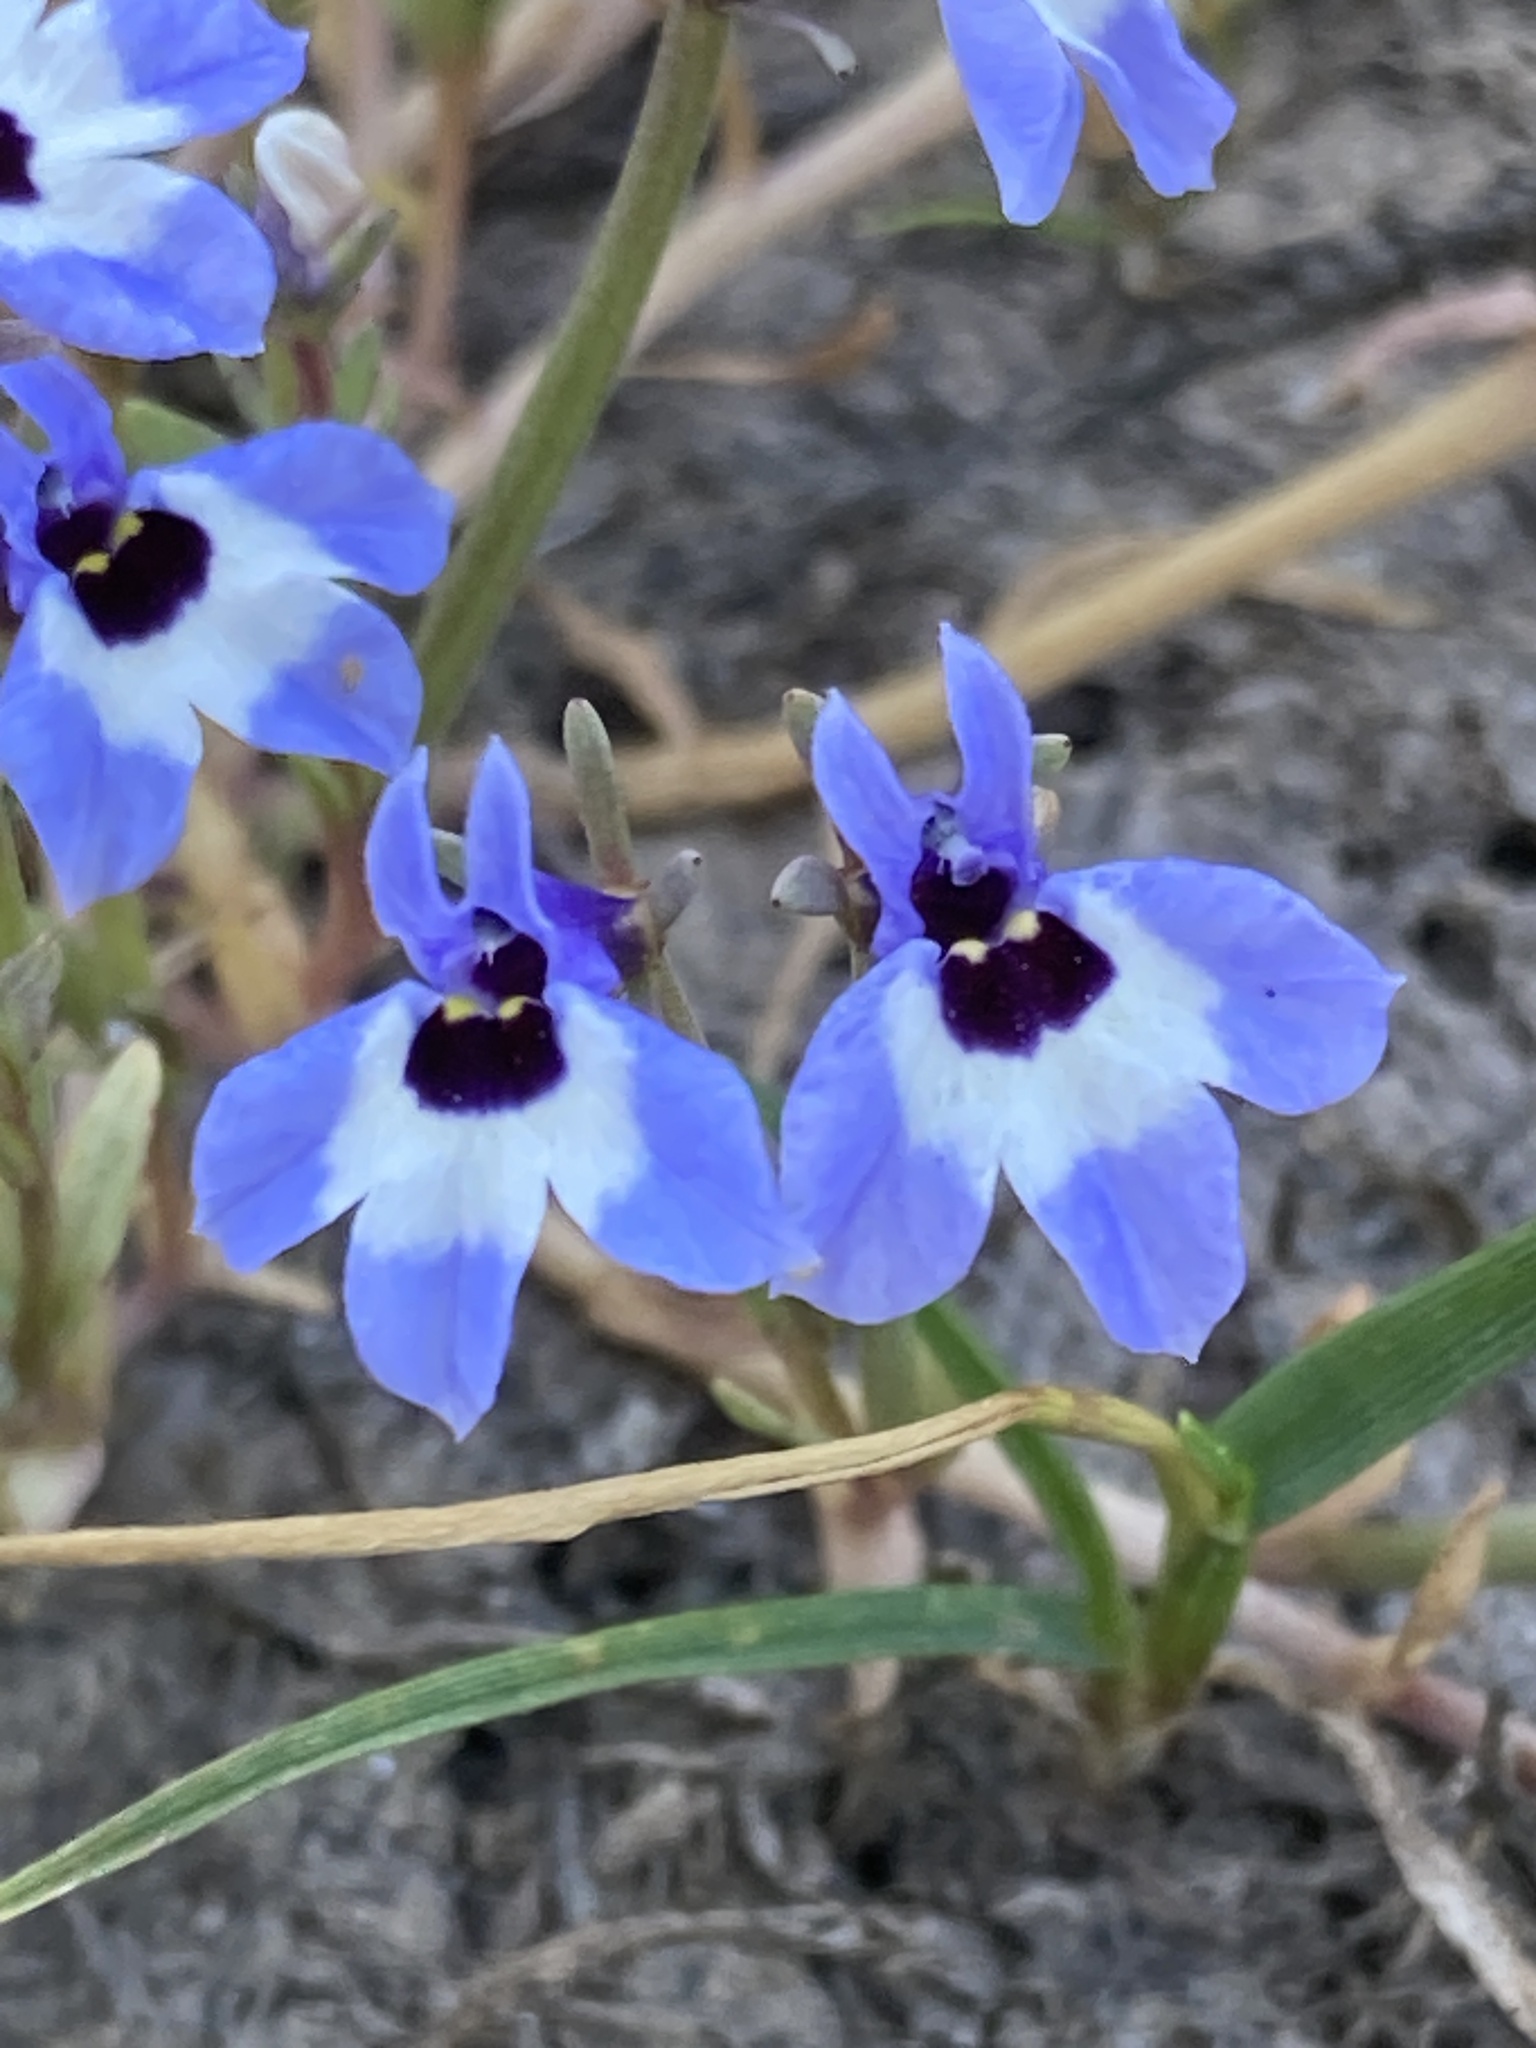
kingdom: Plantae
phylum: Tracheophyta
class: Magnoliopsida
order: Asterales
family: Campanulaceae
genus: Downingia
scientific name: Downingia concolor
